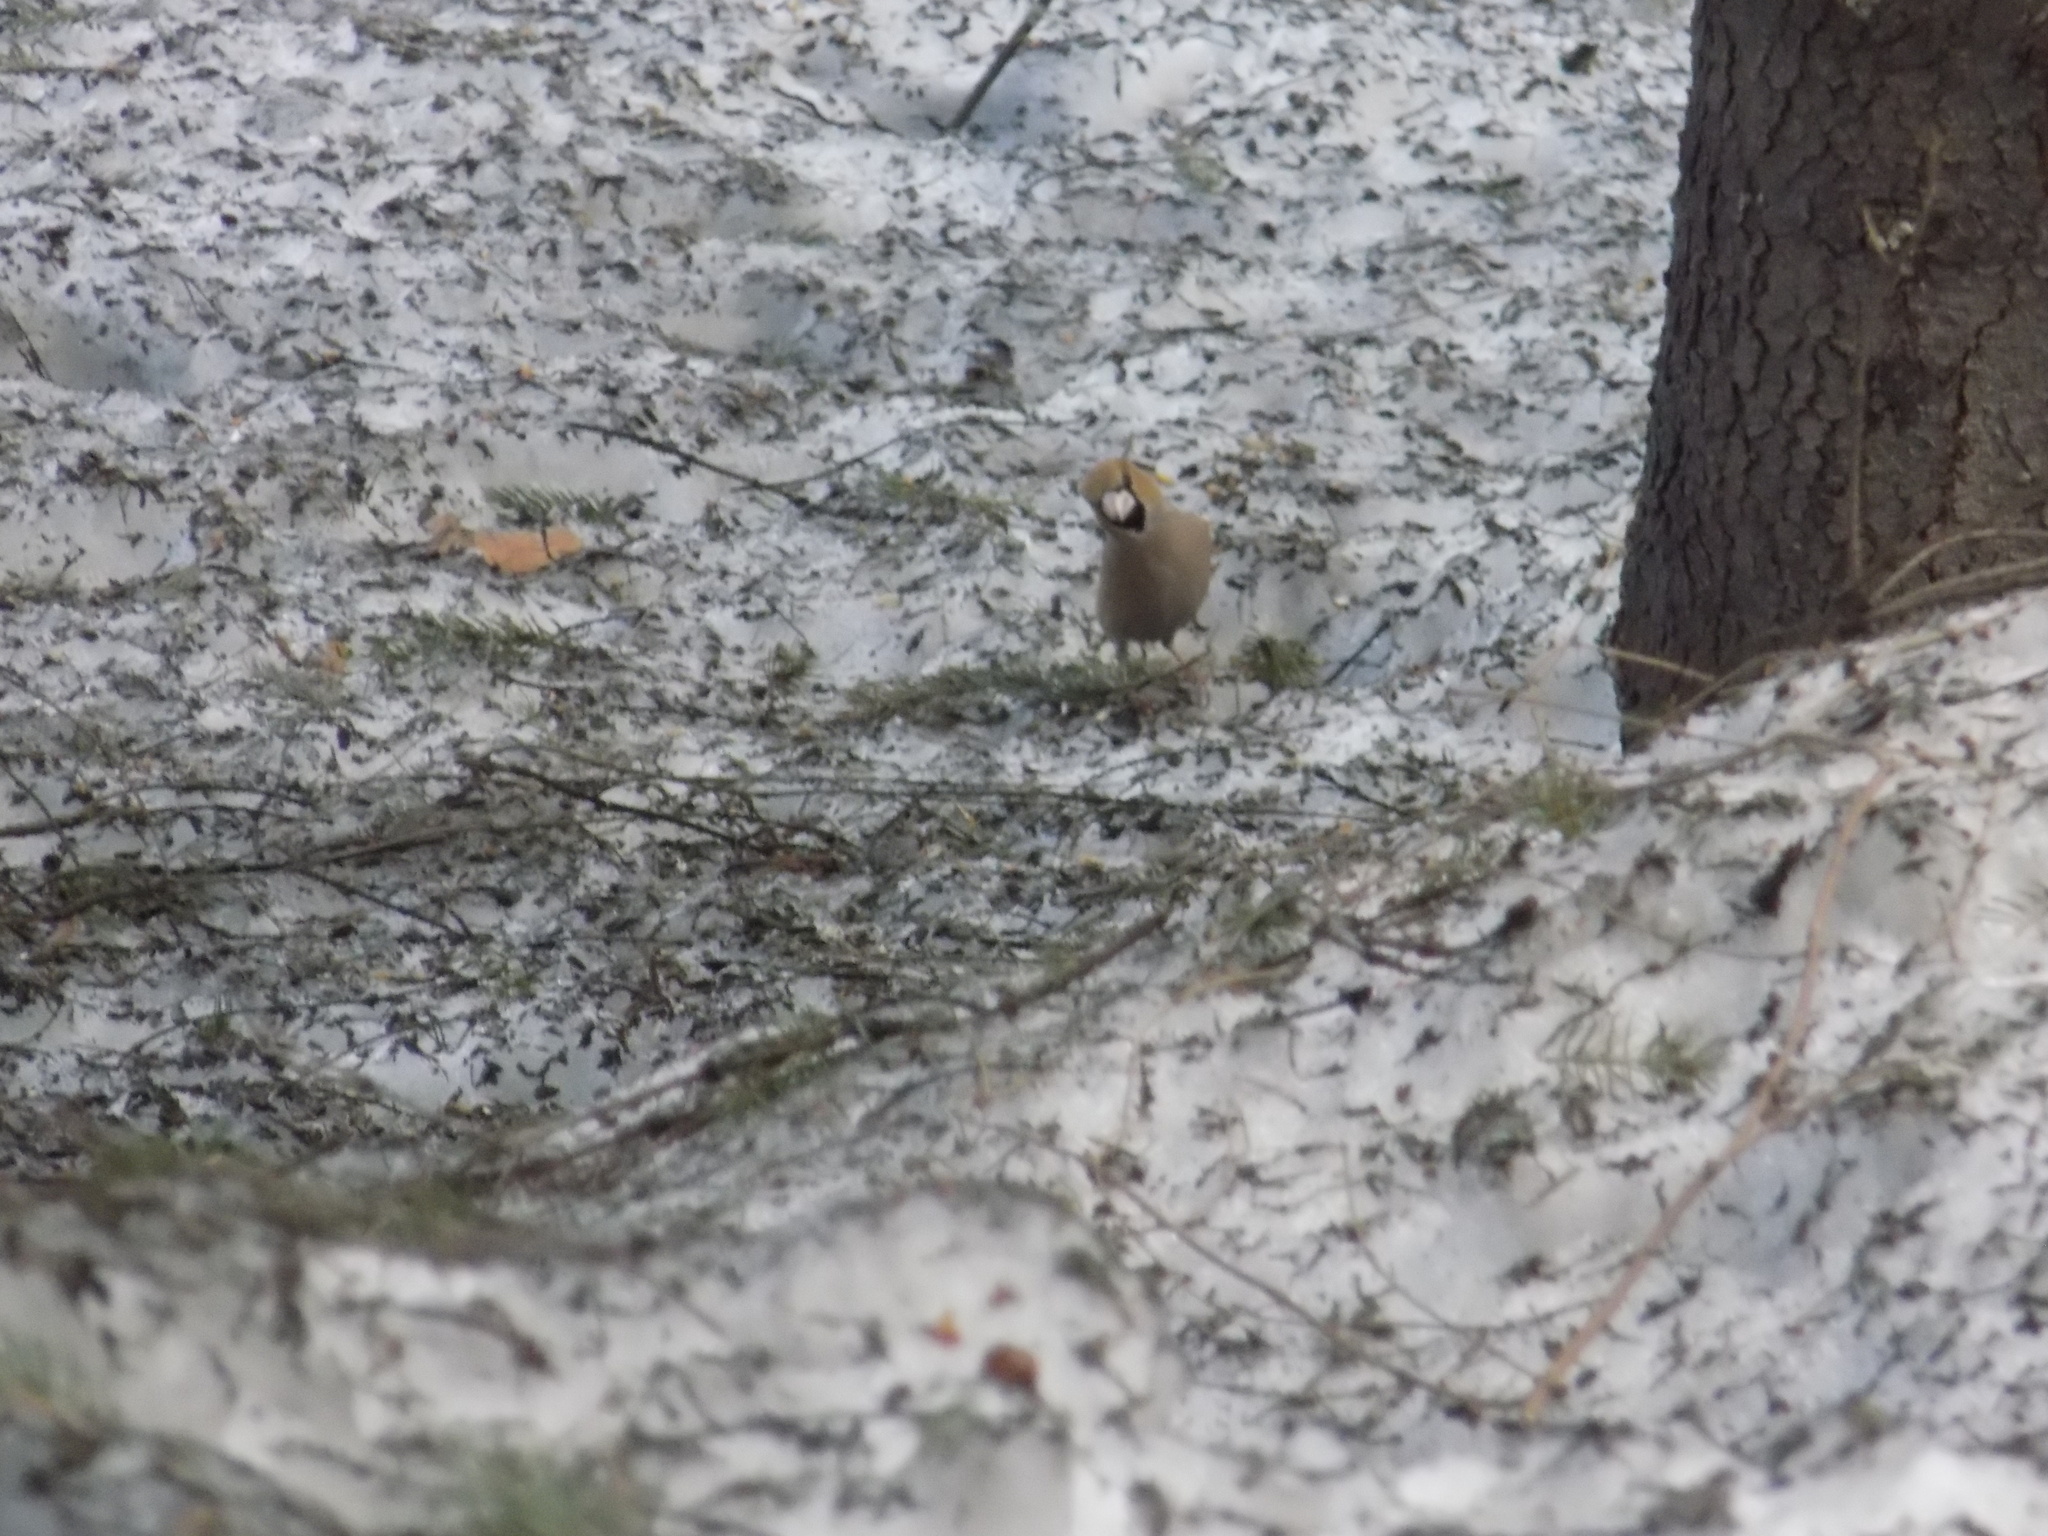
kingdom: Animalia
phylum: Chordata
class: Aves
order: Passeriformes
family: Fringillidae
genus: Coccothraustes
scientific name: Coccothraustes coccothraustes
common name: Hawfinch
